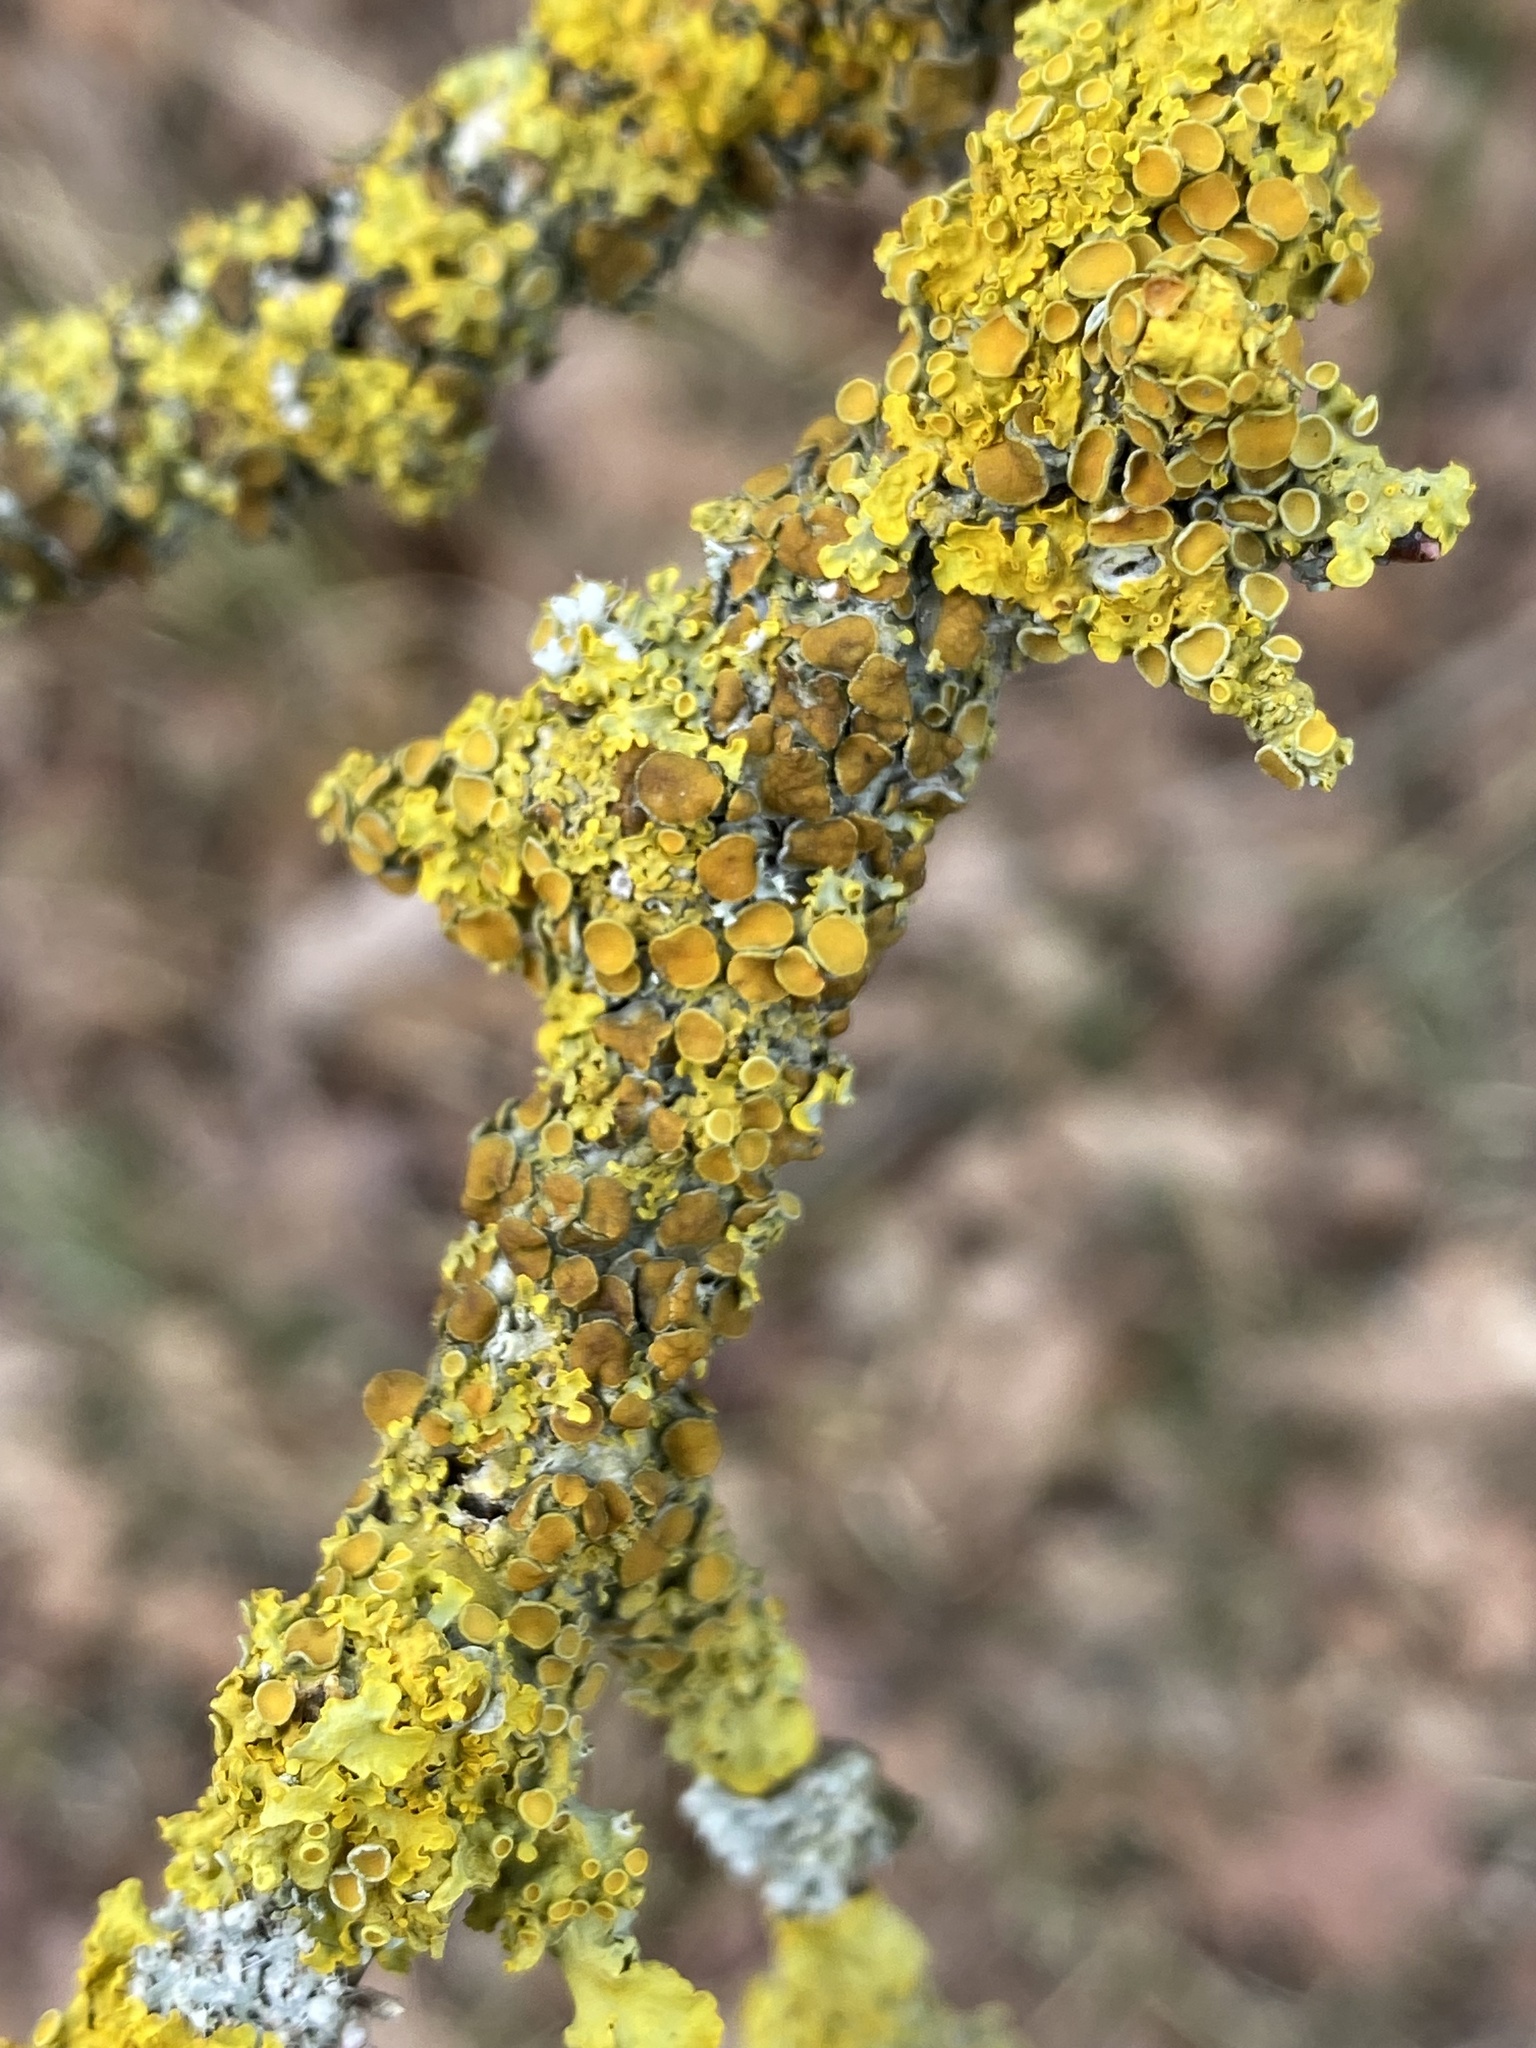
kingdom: Fungi
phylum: Ascomycota
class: Lecanoromycetes
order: Teloschistales
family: Teloschistaceae
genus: Xanthoria
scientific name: Xanthoria parietina
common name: Common orange lichen
